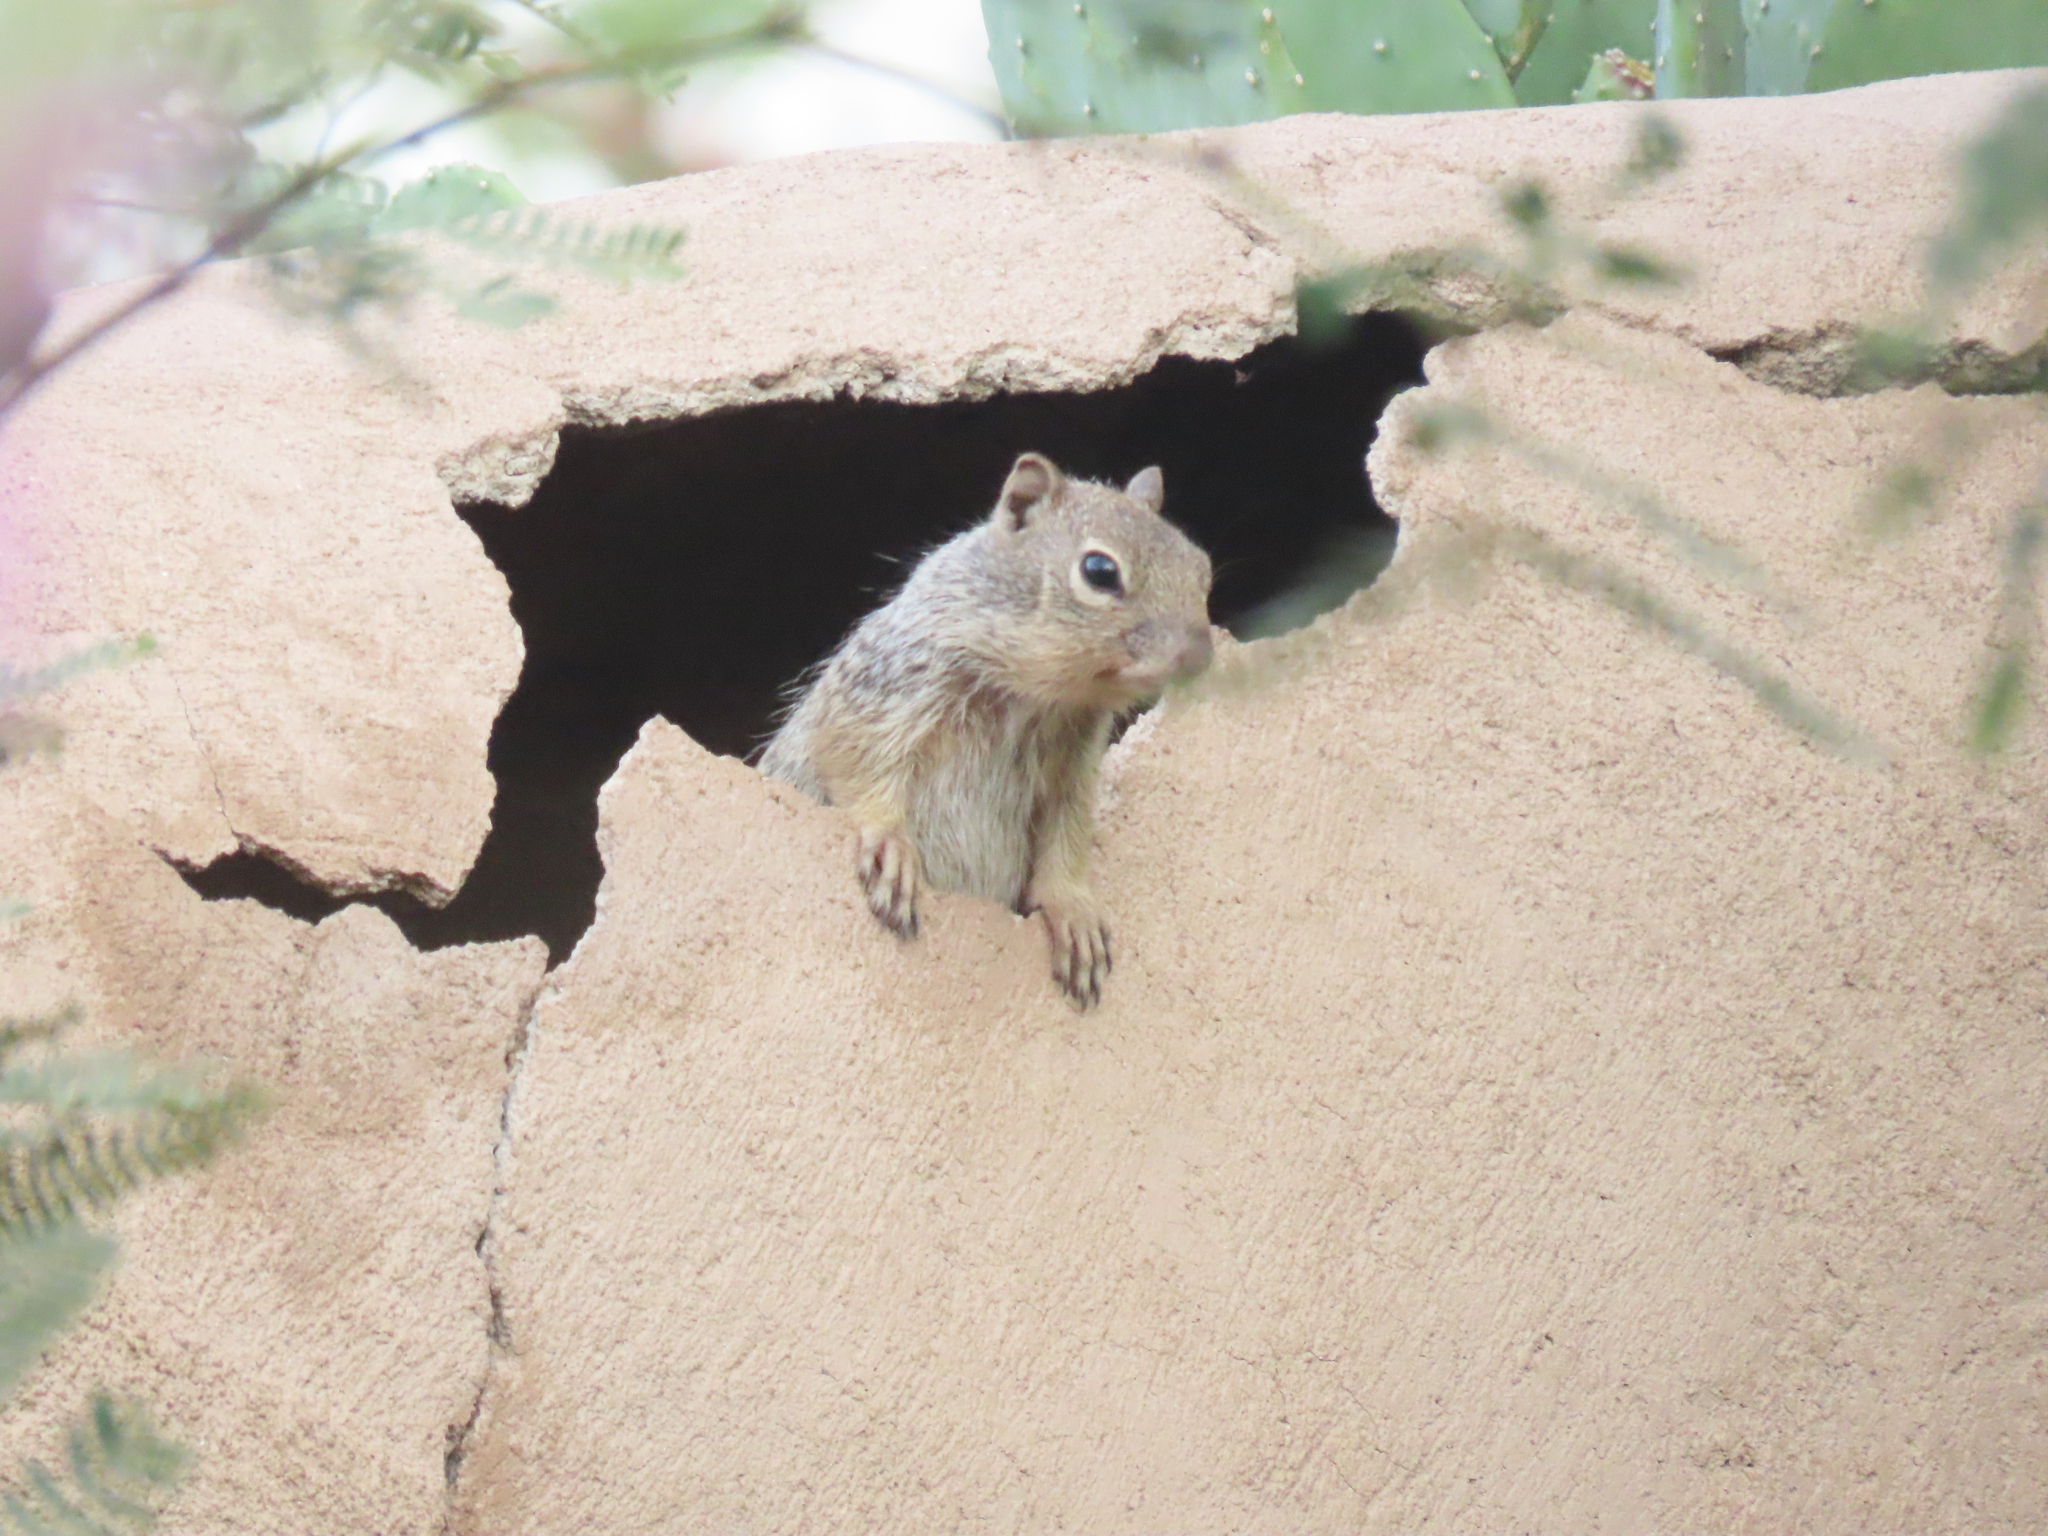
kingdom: Animalia
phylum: Chordata
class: Mammalia
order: Rodentia
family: Sciuridae
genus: Otospermophilus
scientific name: Otospermophilus variegatus
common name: Rock squirrel
